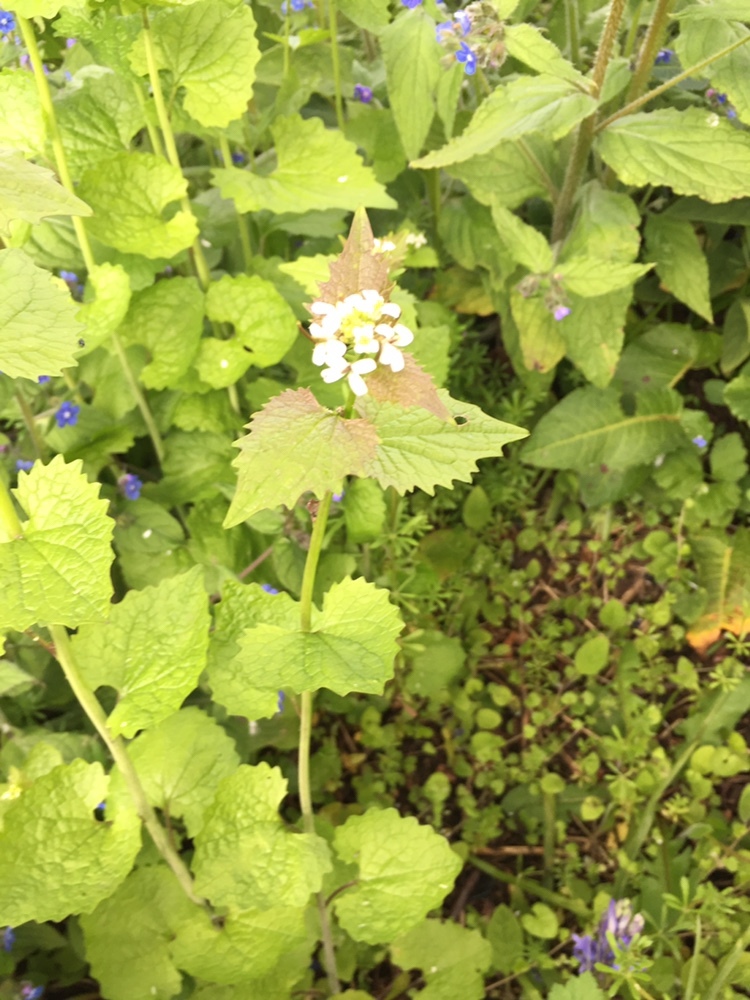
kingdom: Plantae
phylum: Tracheophyta
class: Magnoliopsida
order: Brassicales
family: Brassicaceae
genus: Alliaria
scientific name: Alliaria petiolata
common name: Garlic mustard
